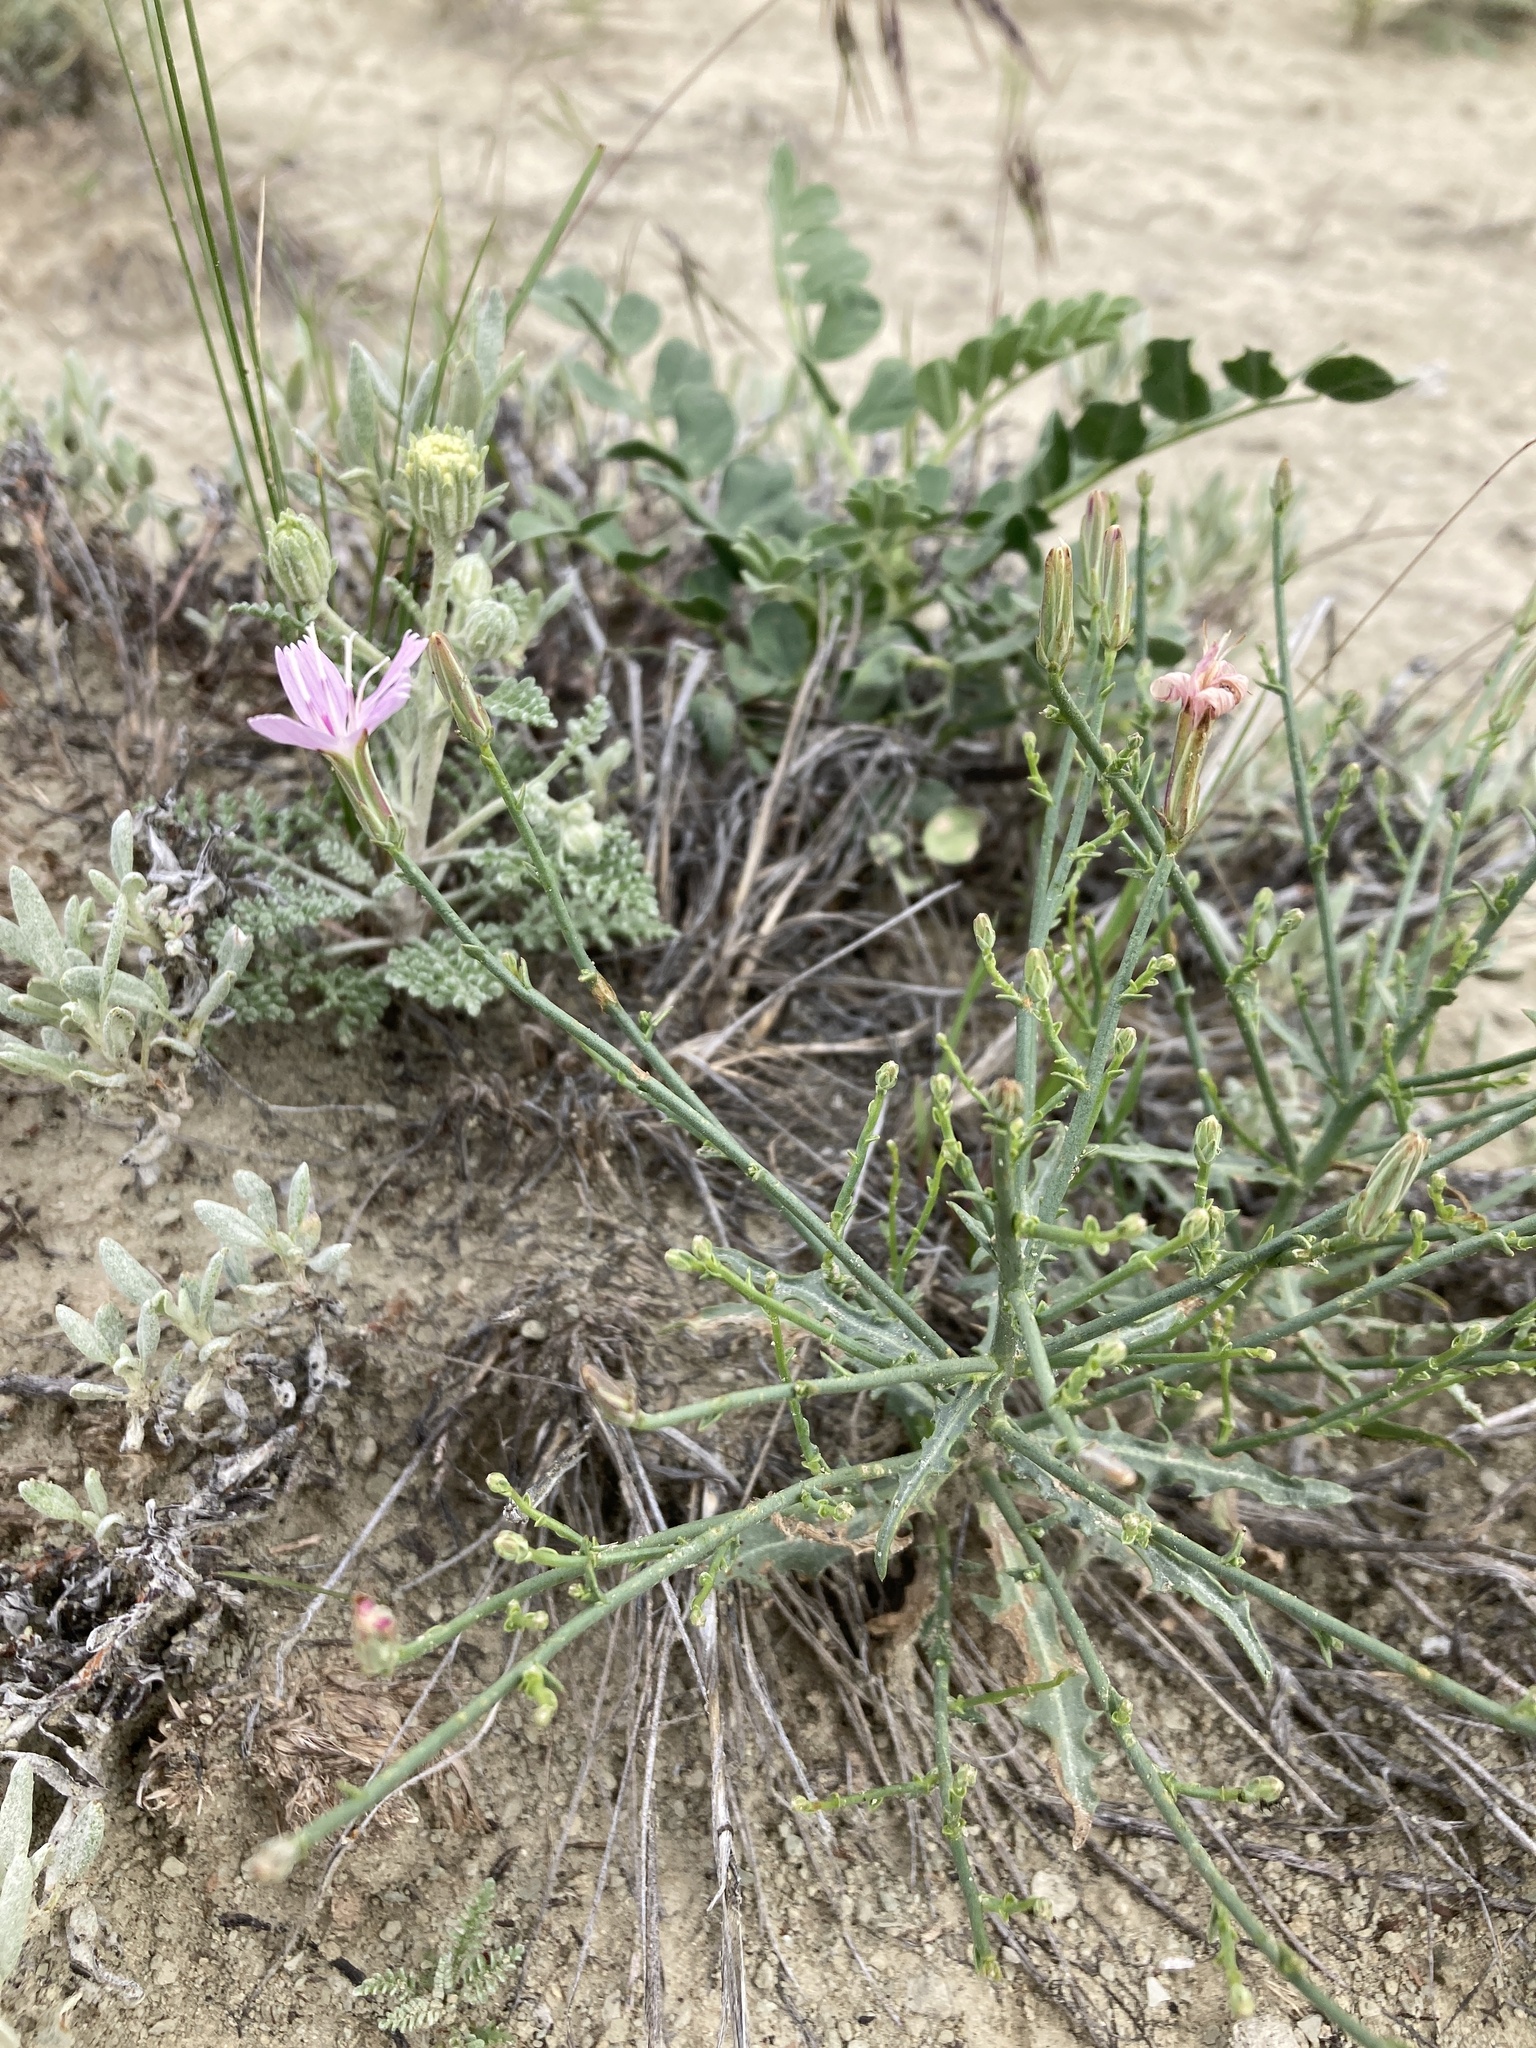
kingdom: Plantae
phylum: Tracheophyta
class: Magnoliopsida
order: Asterales
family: Asteraceae
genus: Lygodesmia
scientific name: Lygodesmia juncea
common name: Common skeletonweed
